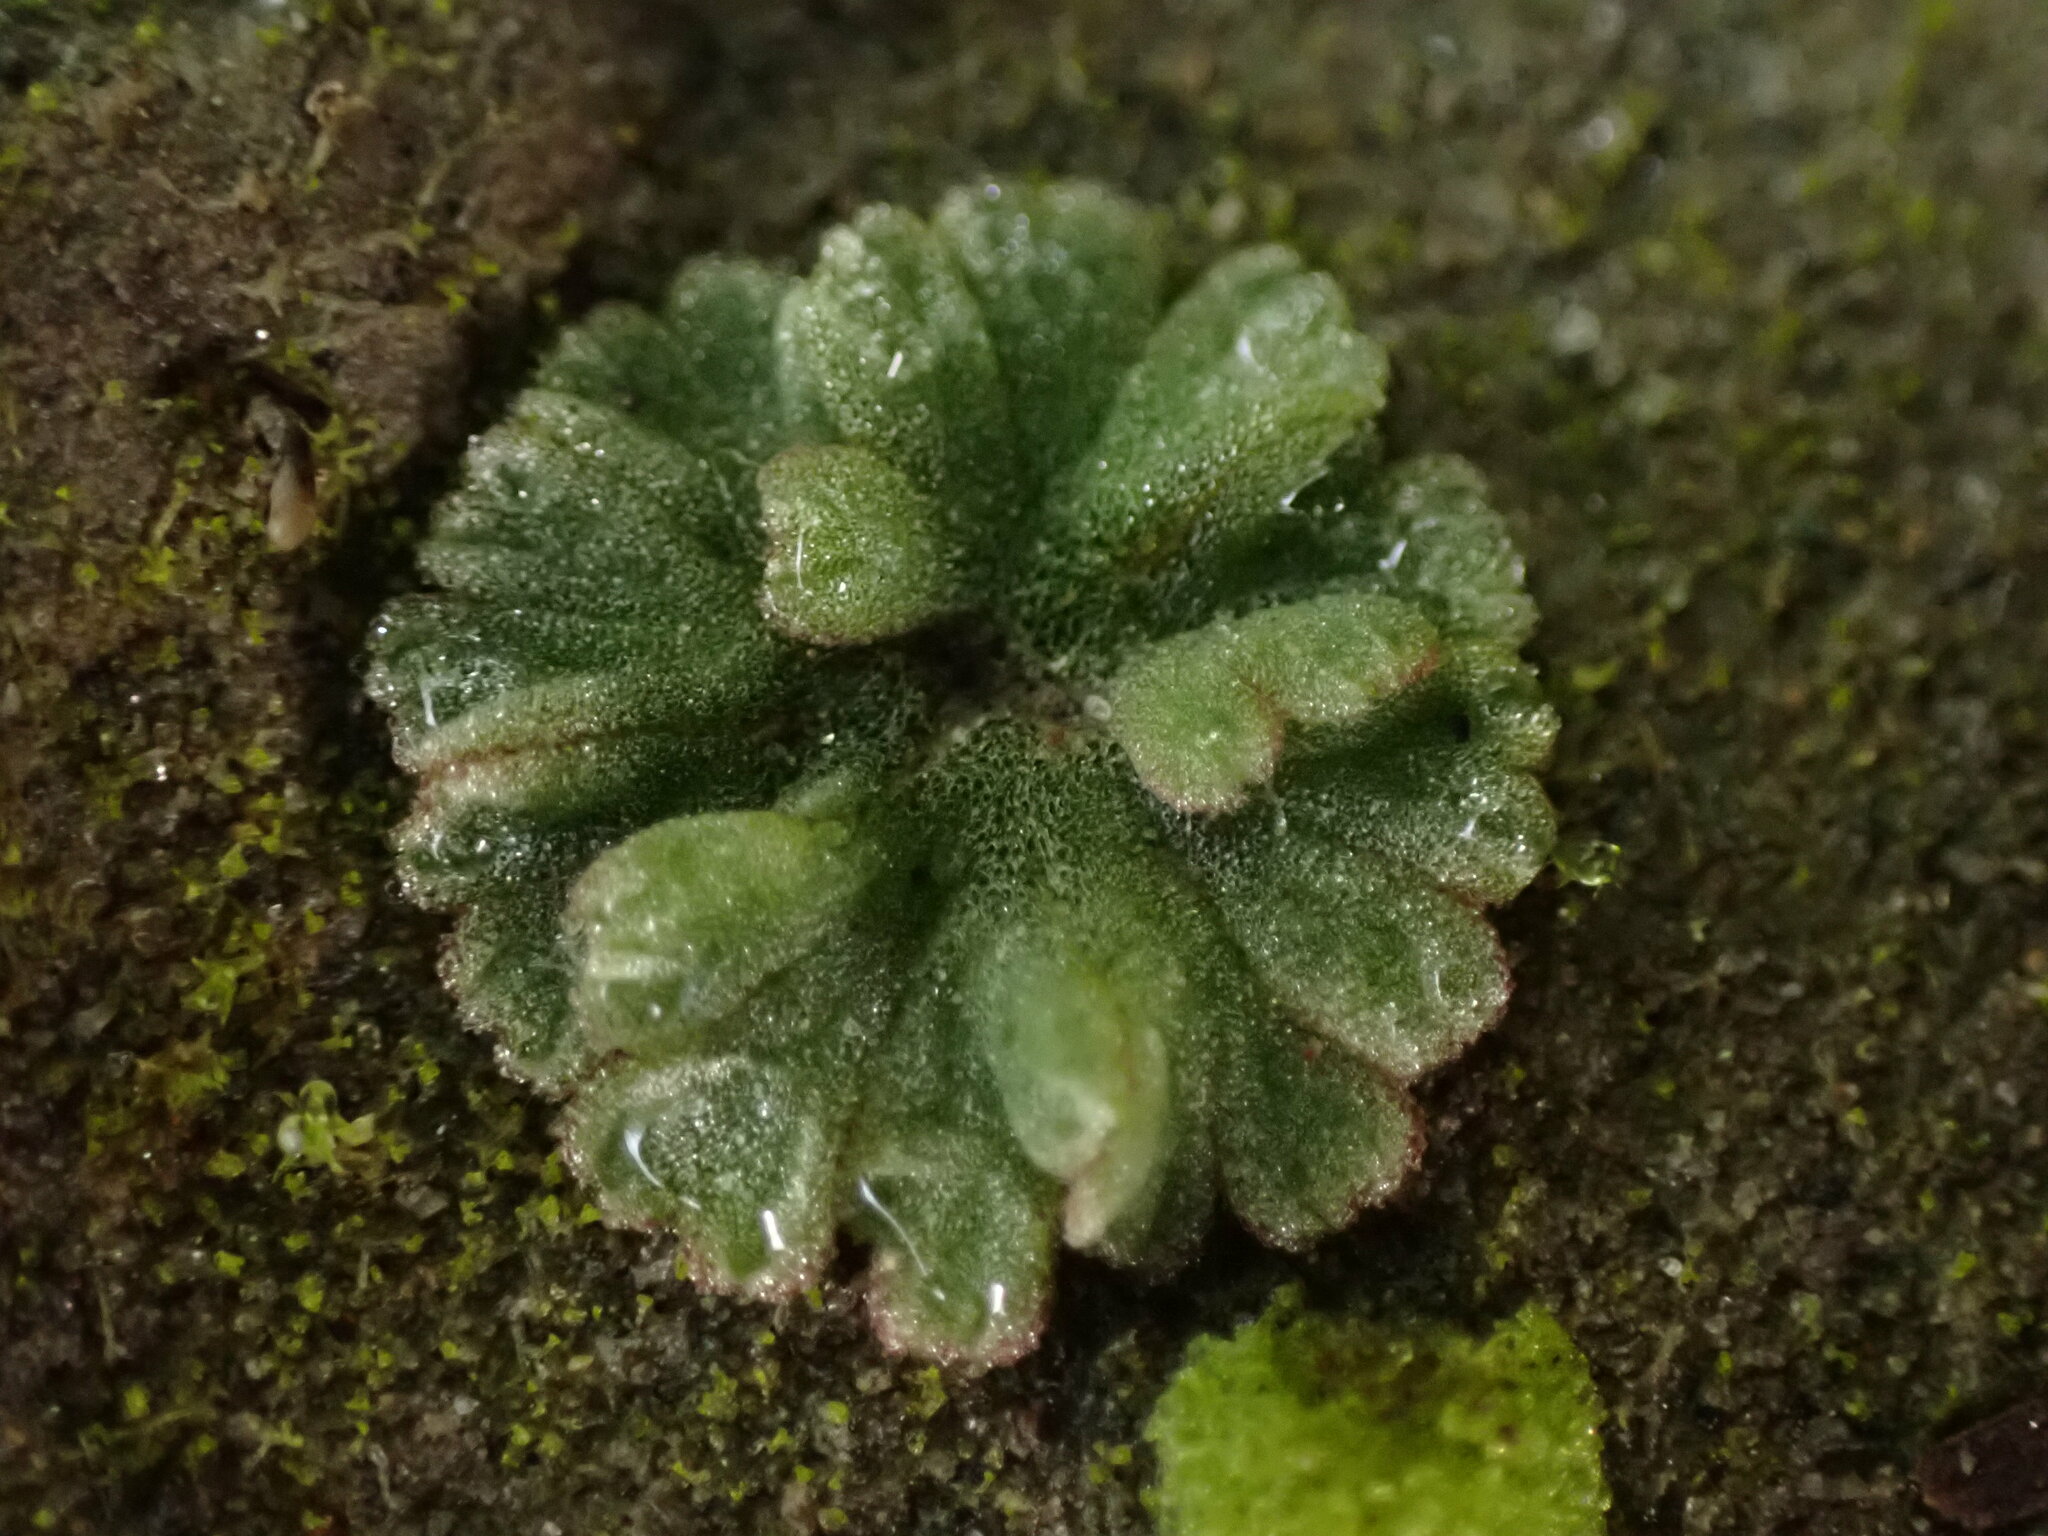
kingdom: Plantae
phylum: Marchantiophyta
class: Marchantiopsida
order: Marchantiales
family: Ricciaceae
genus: Riccia
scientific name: Riccia frostii
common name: Frost s crystalwort
